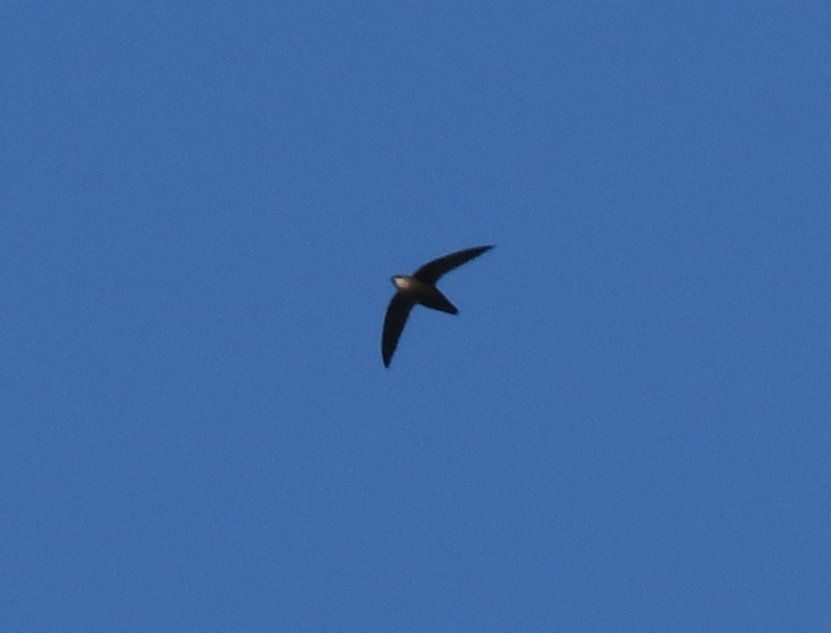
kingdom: Animalia
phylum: Chordata
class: Aves
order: Apodiformes
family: Apodidae
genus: Chaetura
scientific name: Chaetura pelagica
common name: Chimney swift
